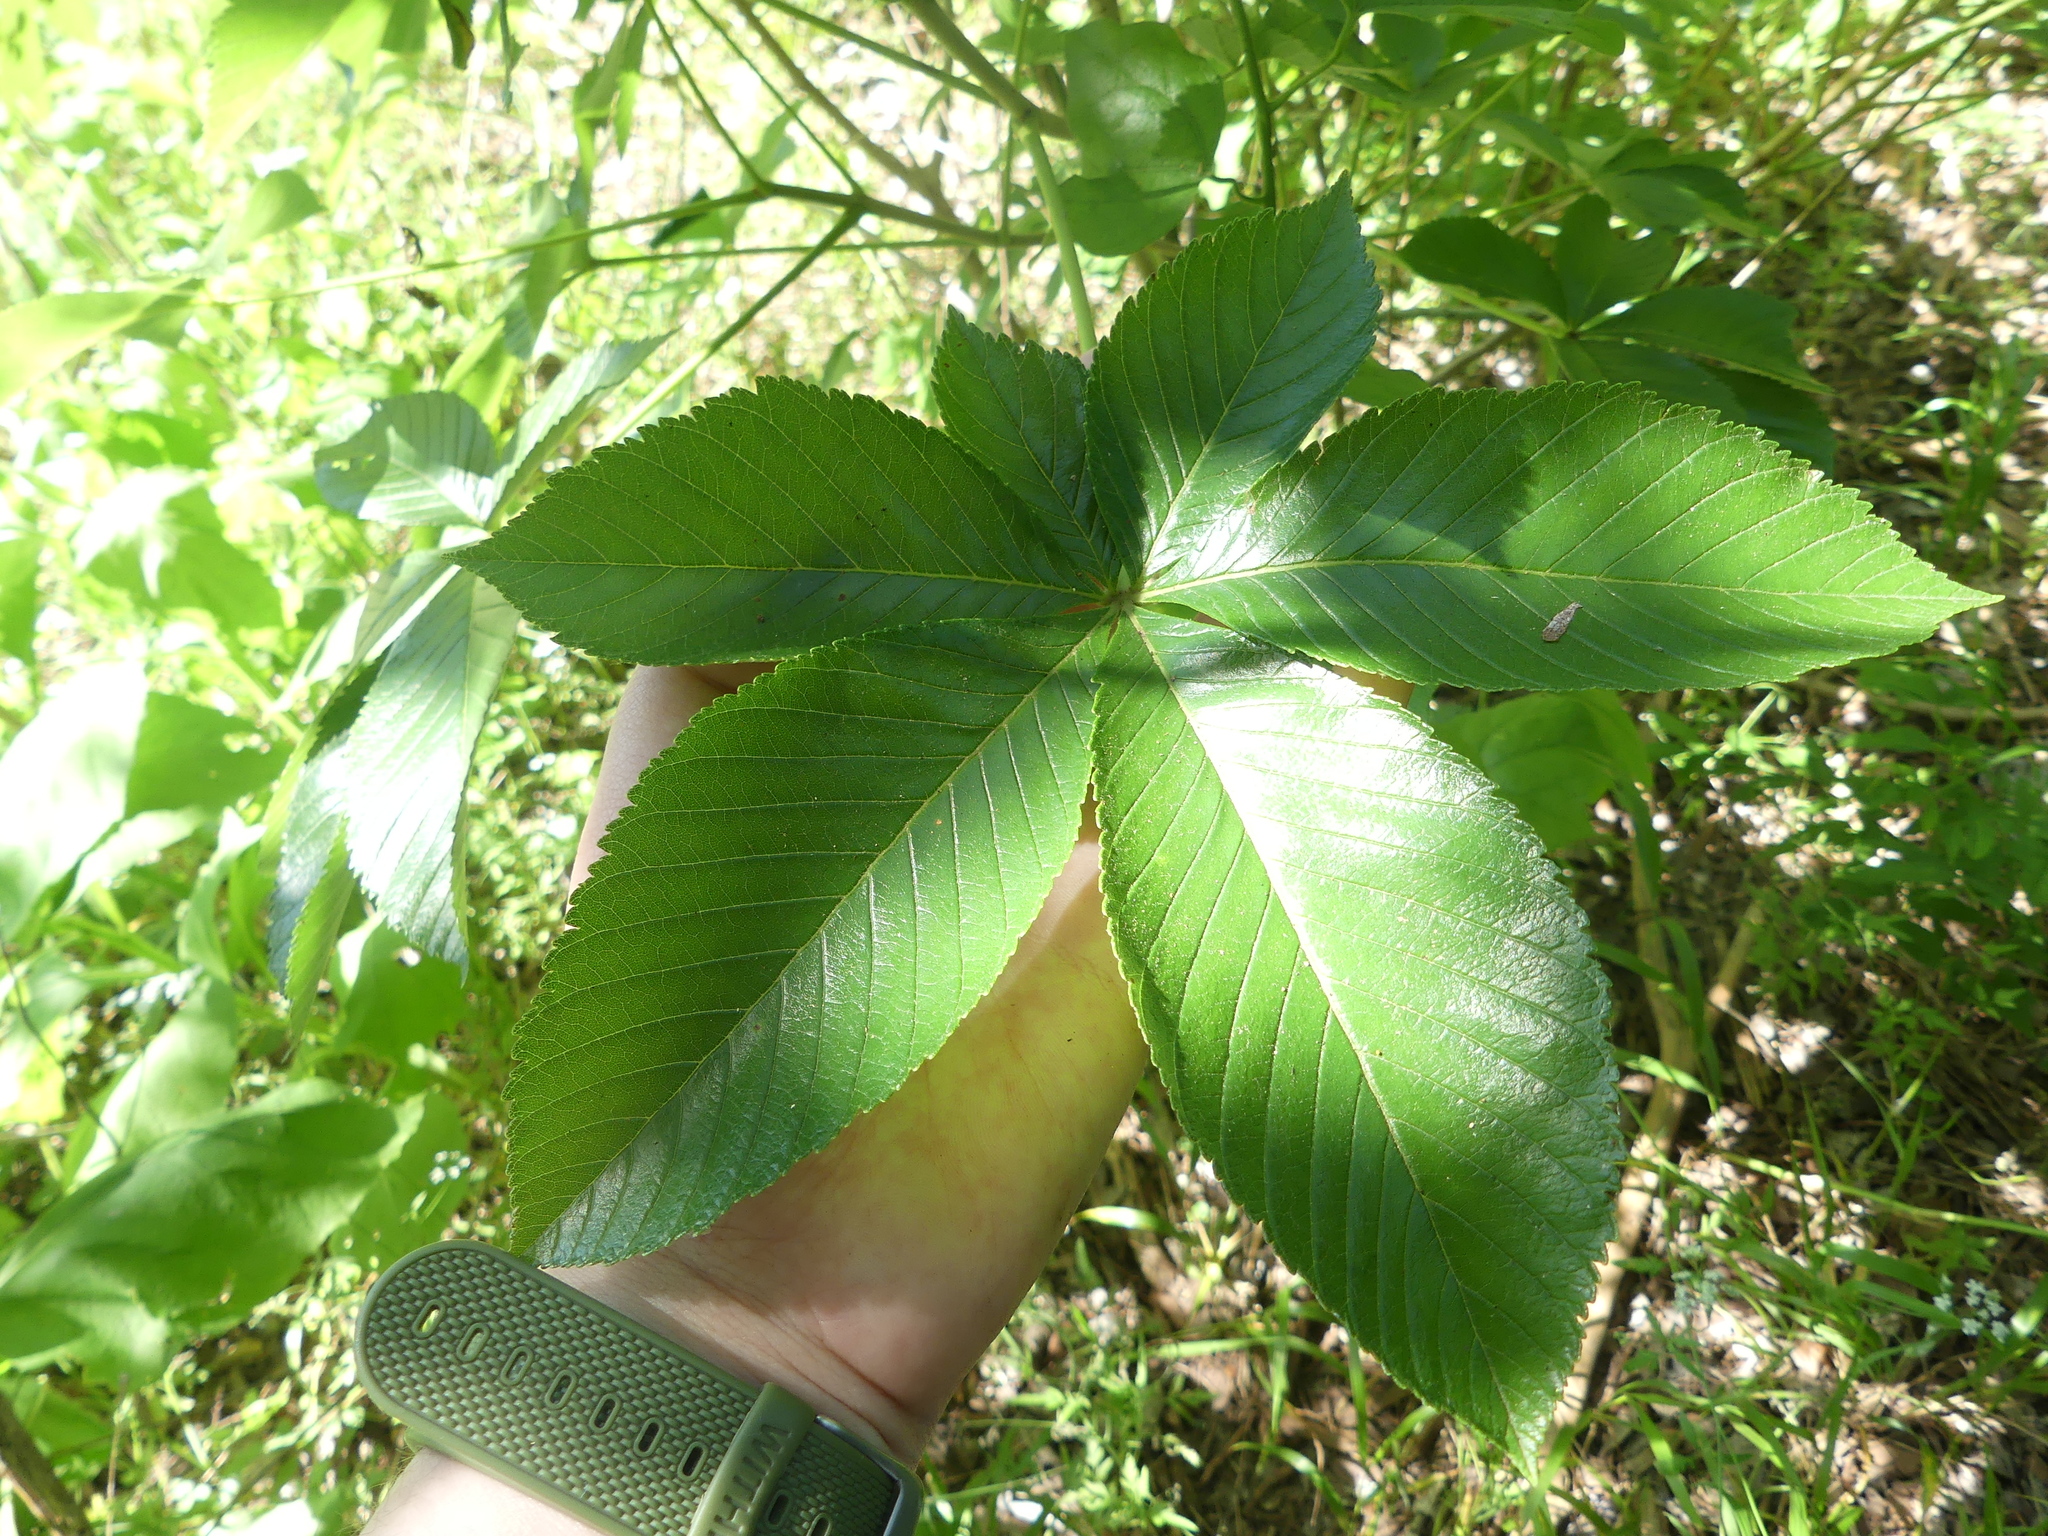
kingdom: Plantae
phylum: Tracheophyta
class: Magnoliopsida
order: Sapindales
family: Sapindaceae
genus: Aesculus
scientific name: Aesculus pavia
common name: Red buckeye
